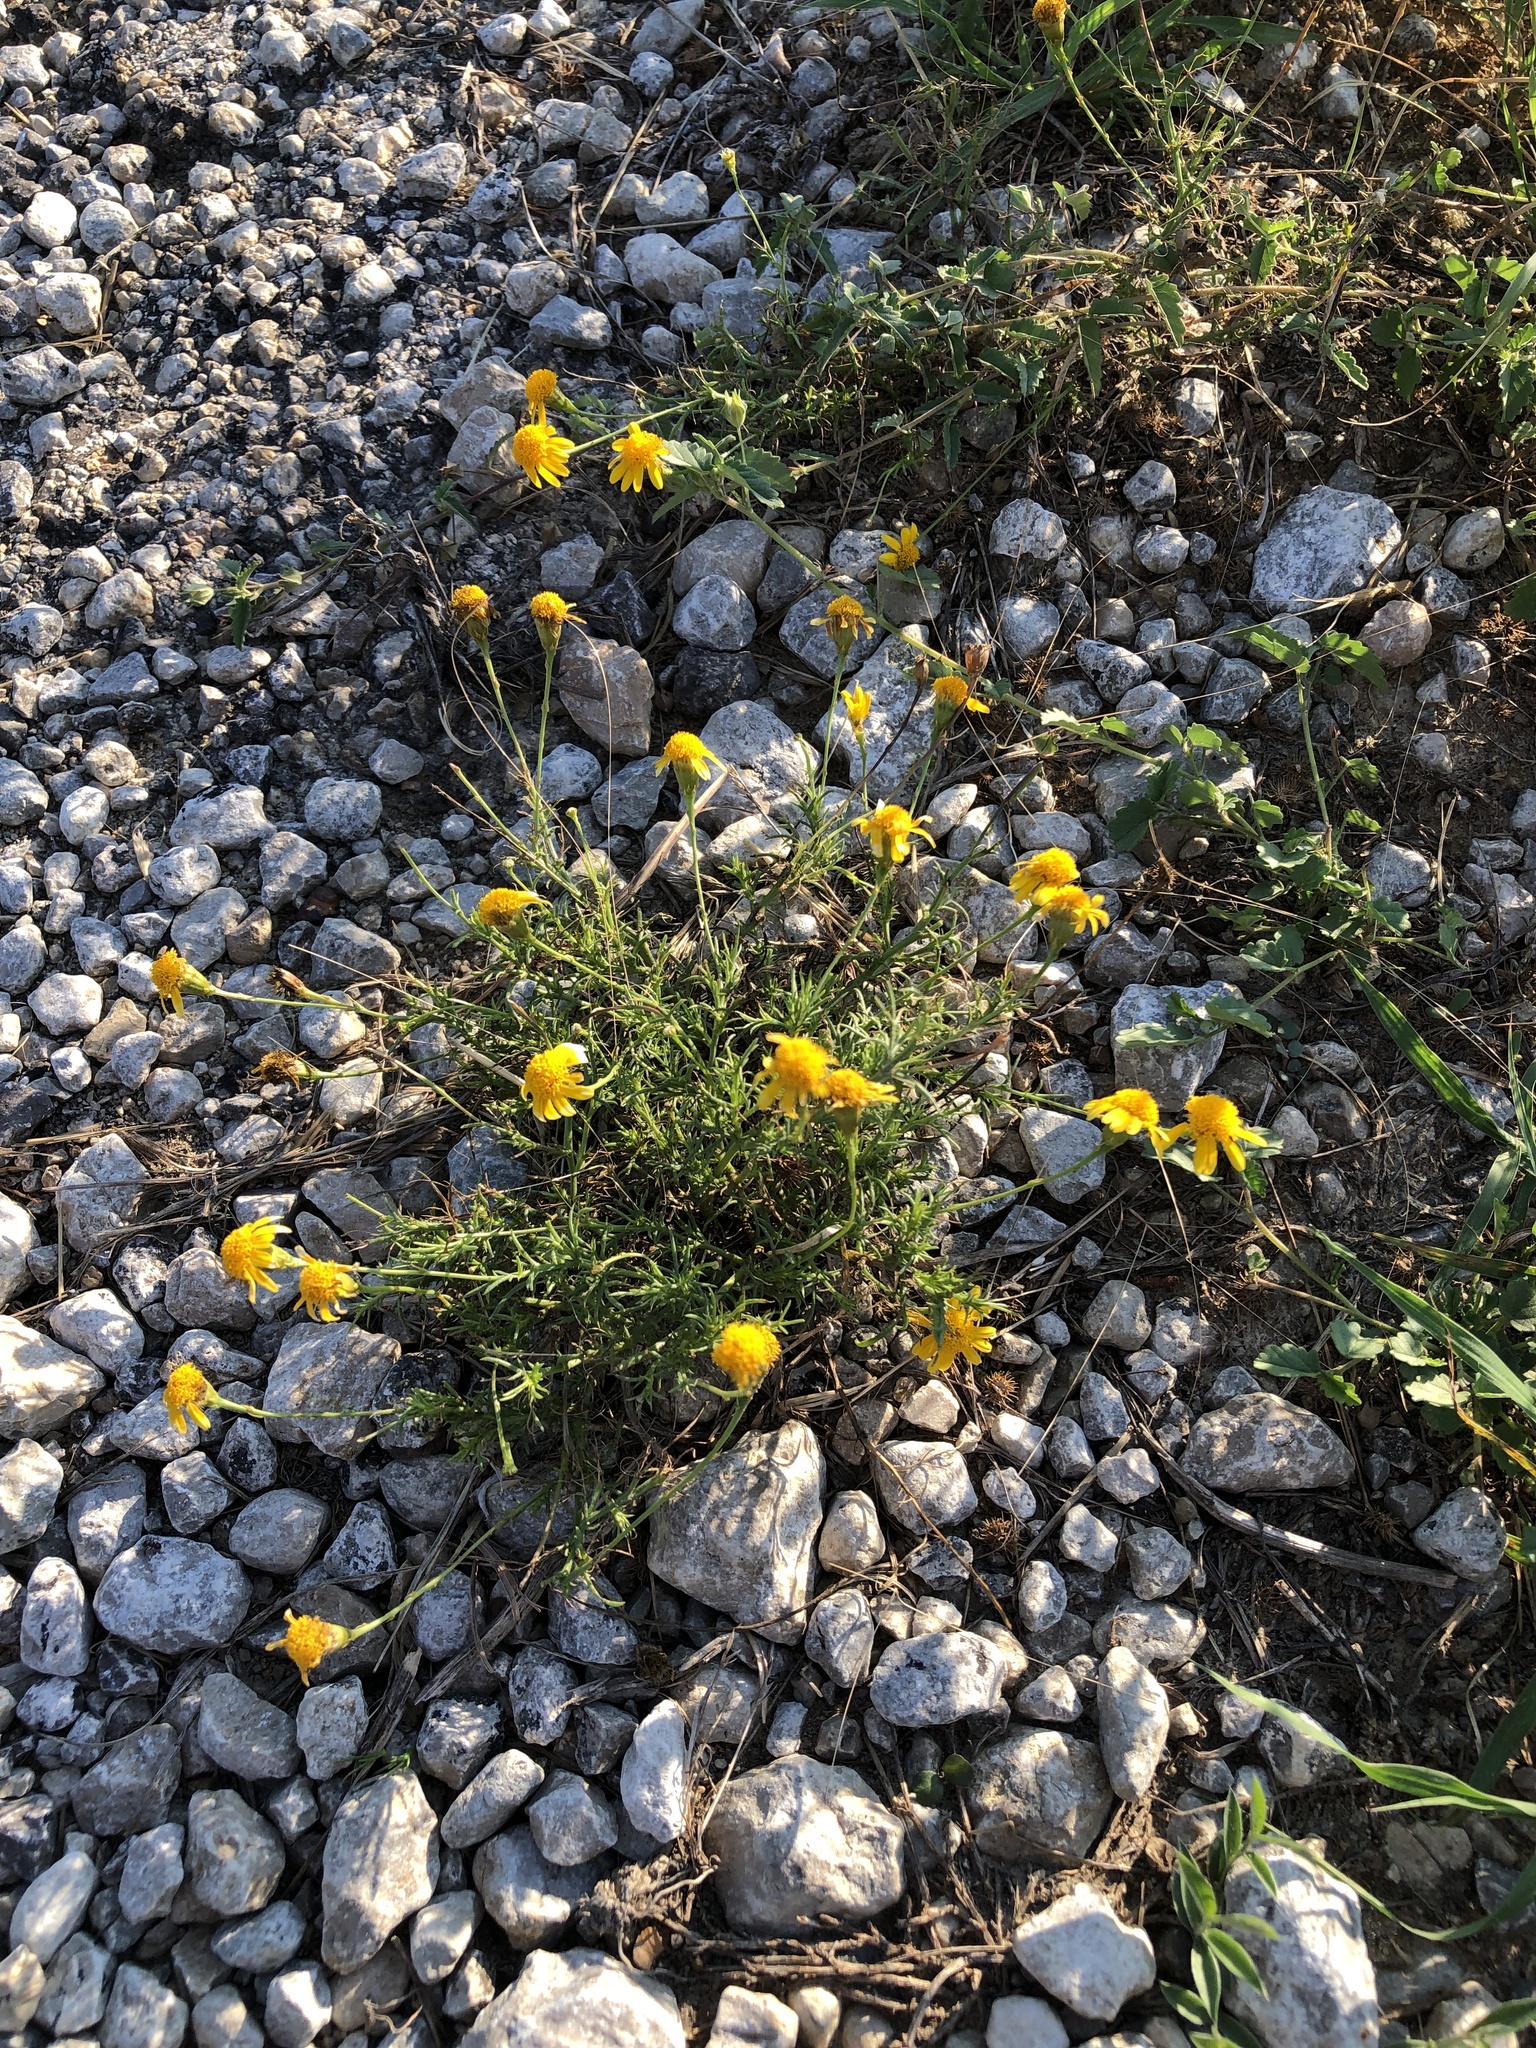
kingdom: Plantae
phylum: Tracheophyta
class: Magnoliopsida
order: Asterales
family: Asteraceae
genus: Thymophylla
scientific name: Thymophylla pentachaeta
